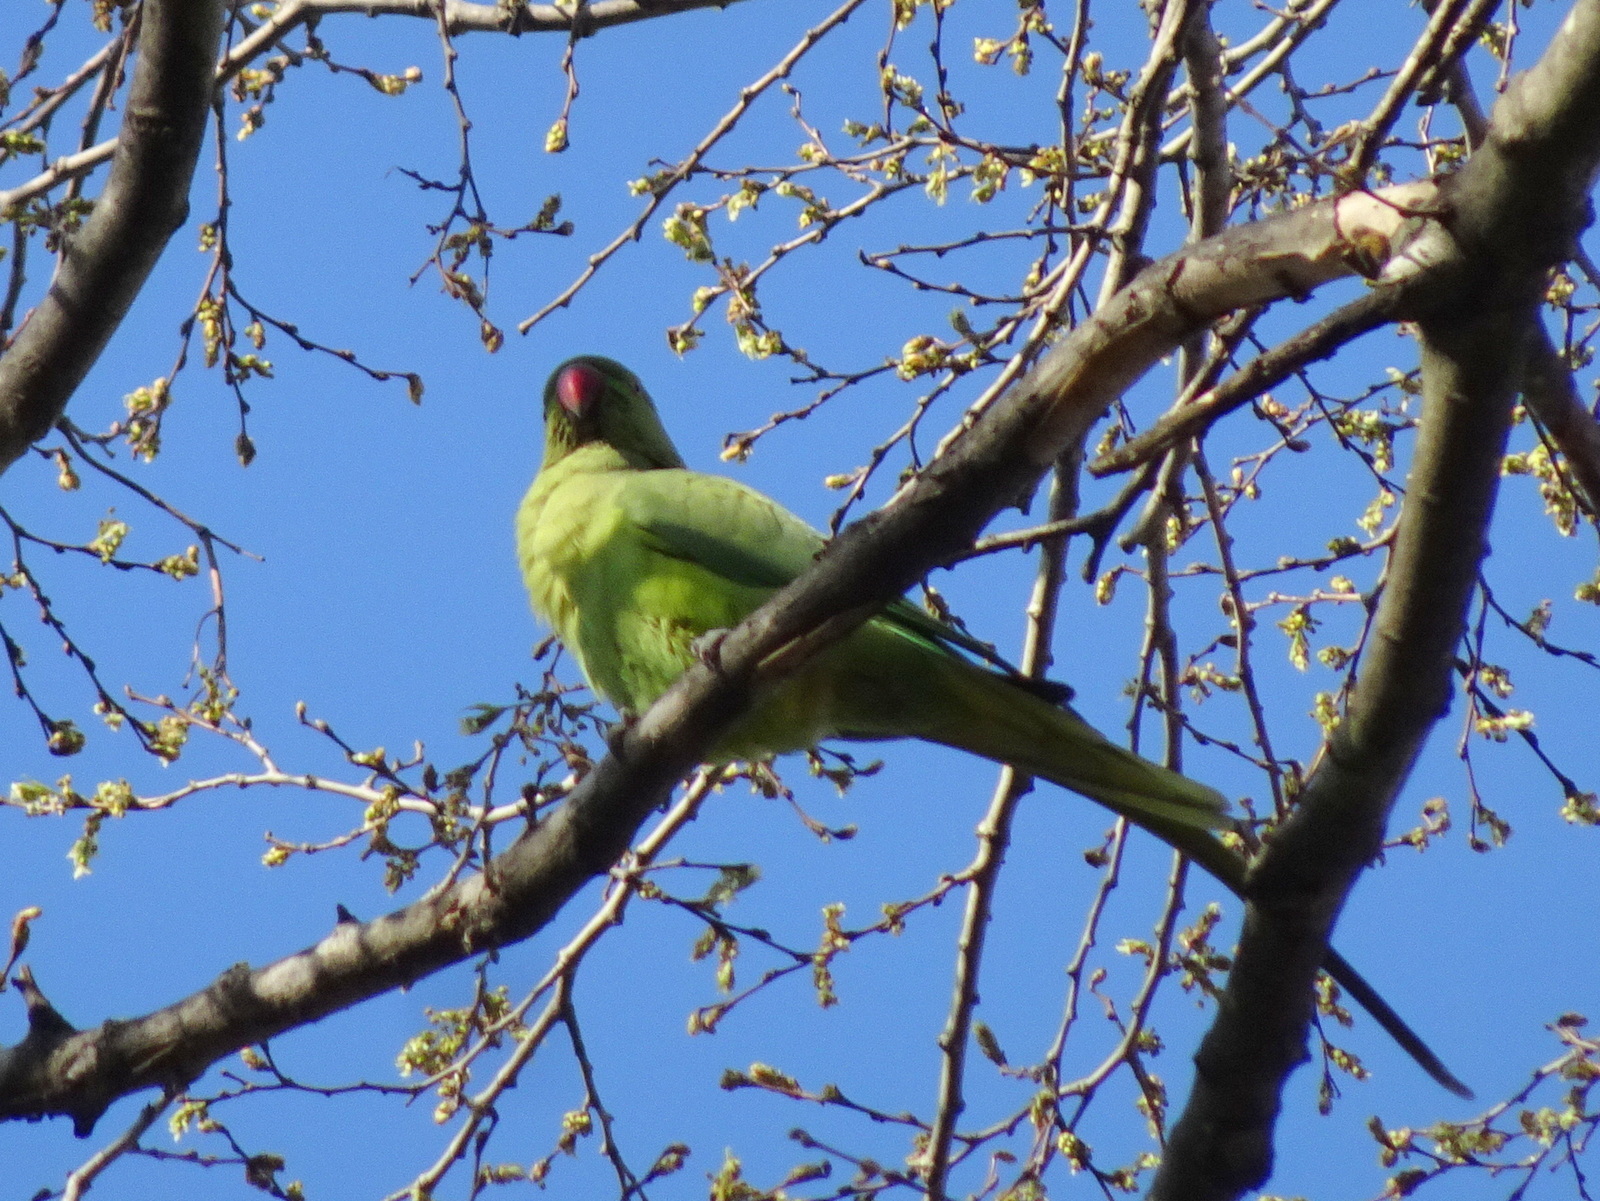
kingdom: Animalia
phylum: Chordata
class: Aves
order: Psittaciformes
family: Psittacidae
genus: Psittacula
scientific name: Psittacula krameri
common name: Rose-ringed parakeet
